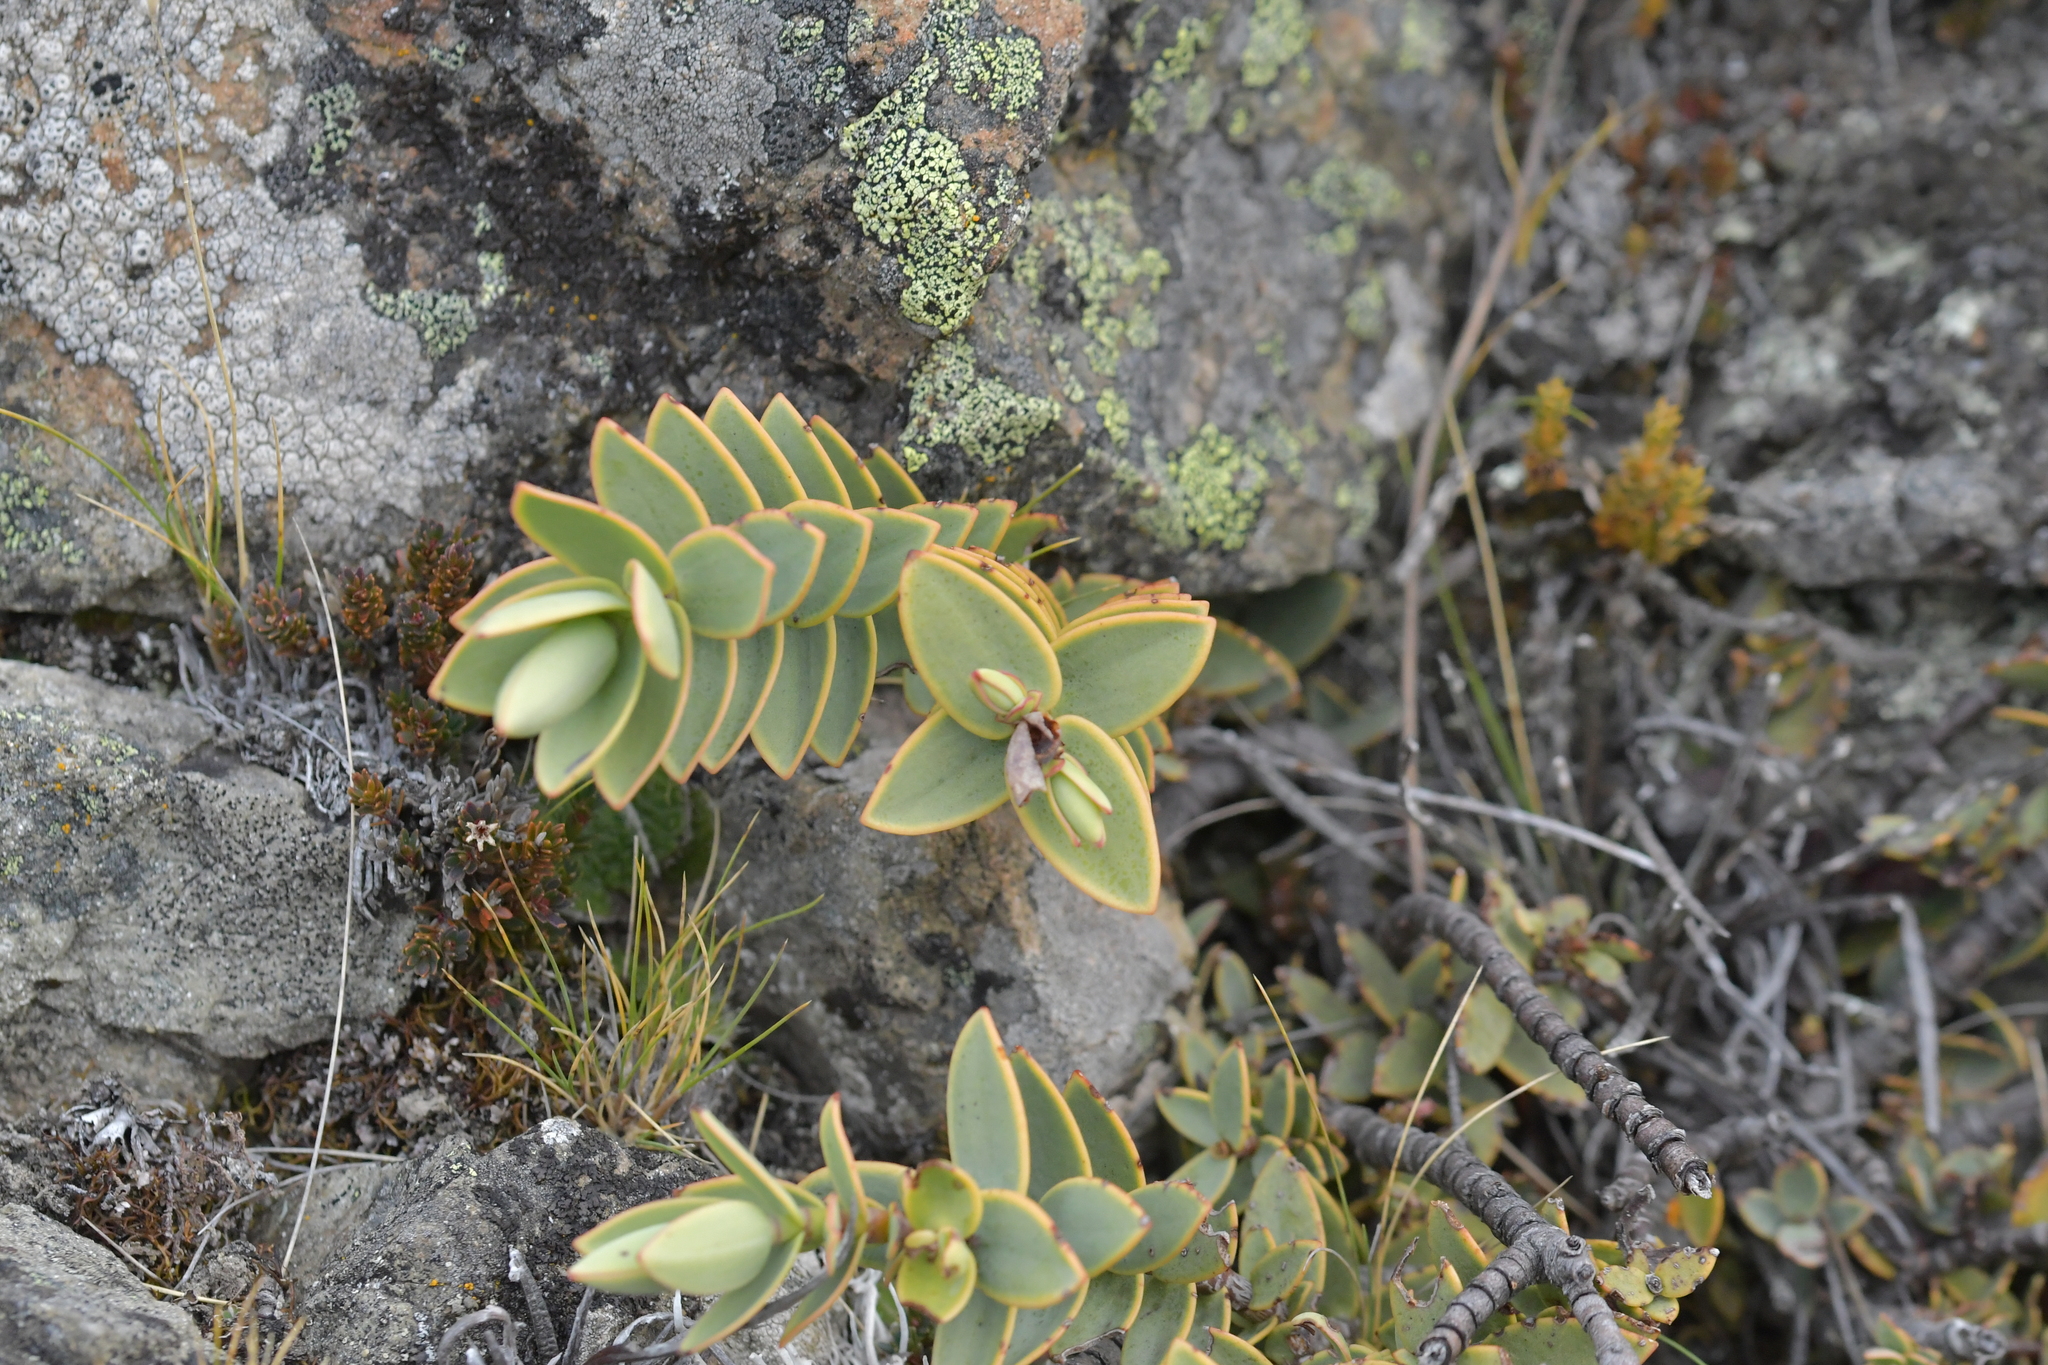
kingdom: Plantae
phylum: Tracheophyta
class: Magnoliopsida
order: Lamiales
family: Plantaginaceae
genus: Veronica
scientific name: Veronica pinguifolia
